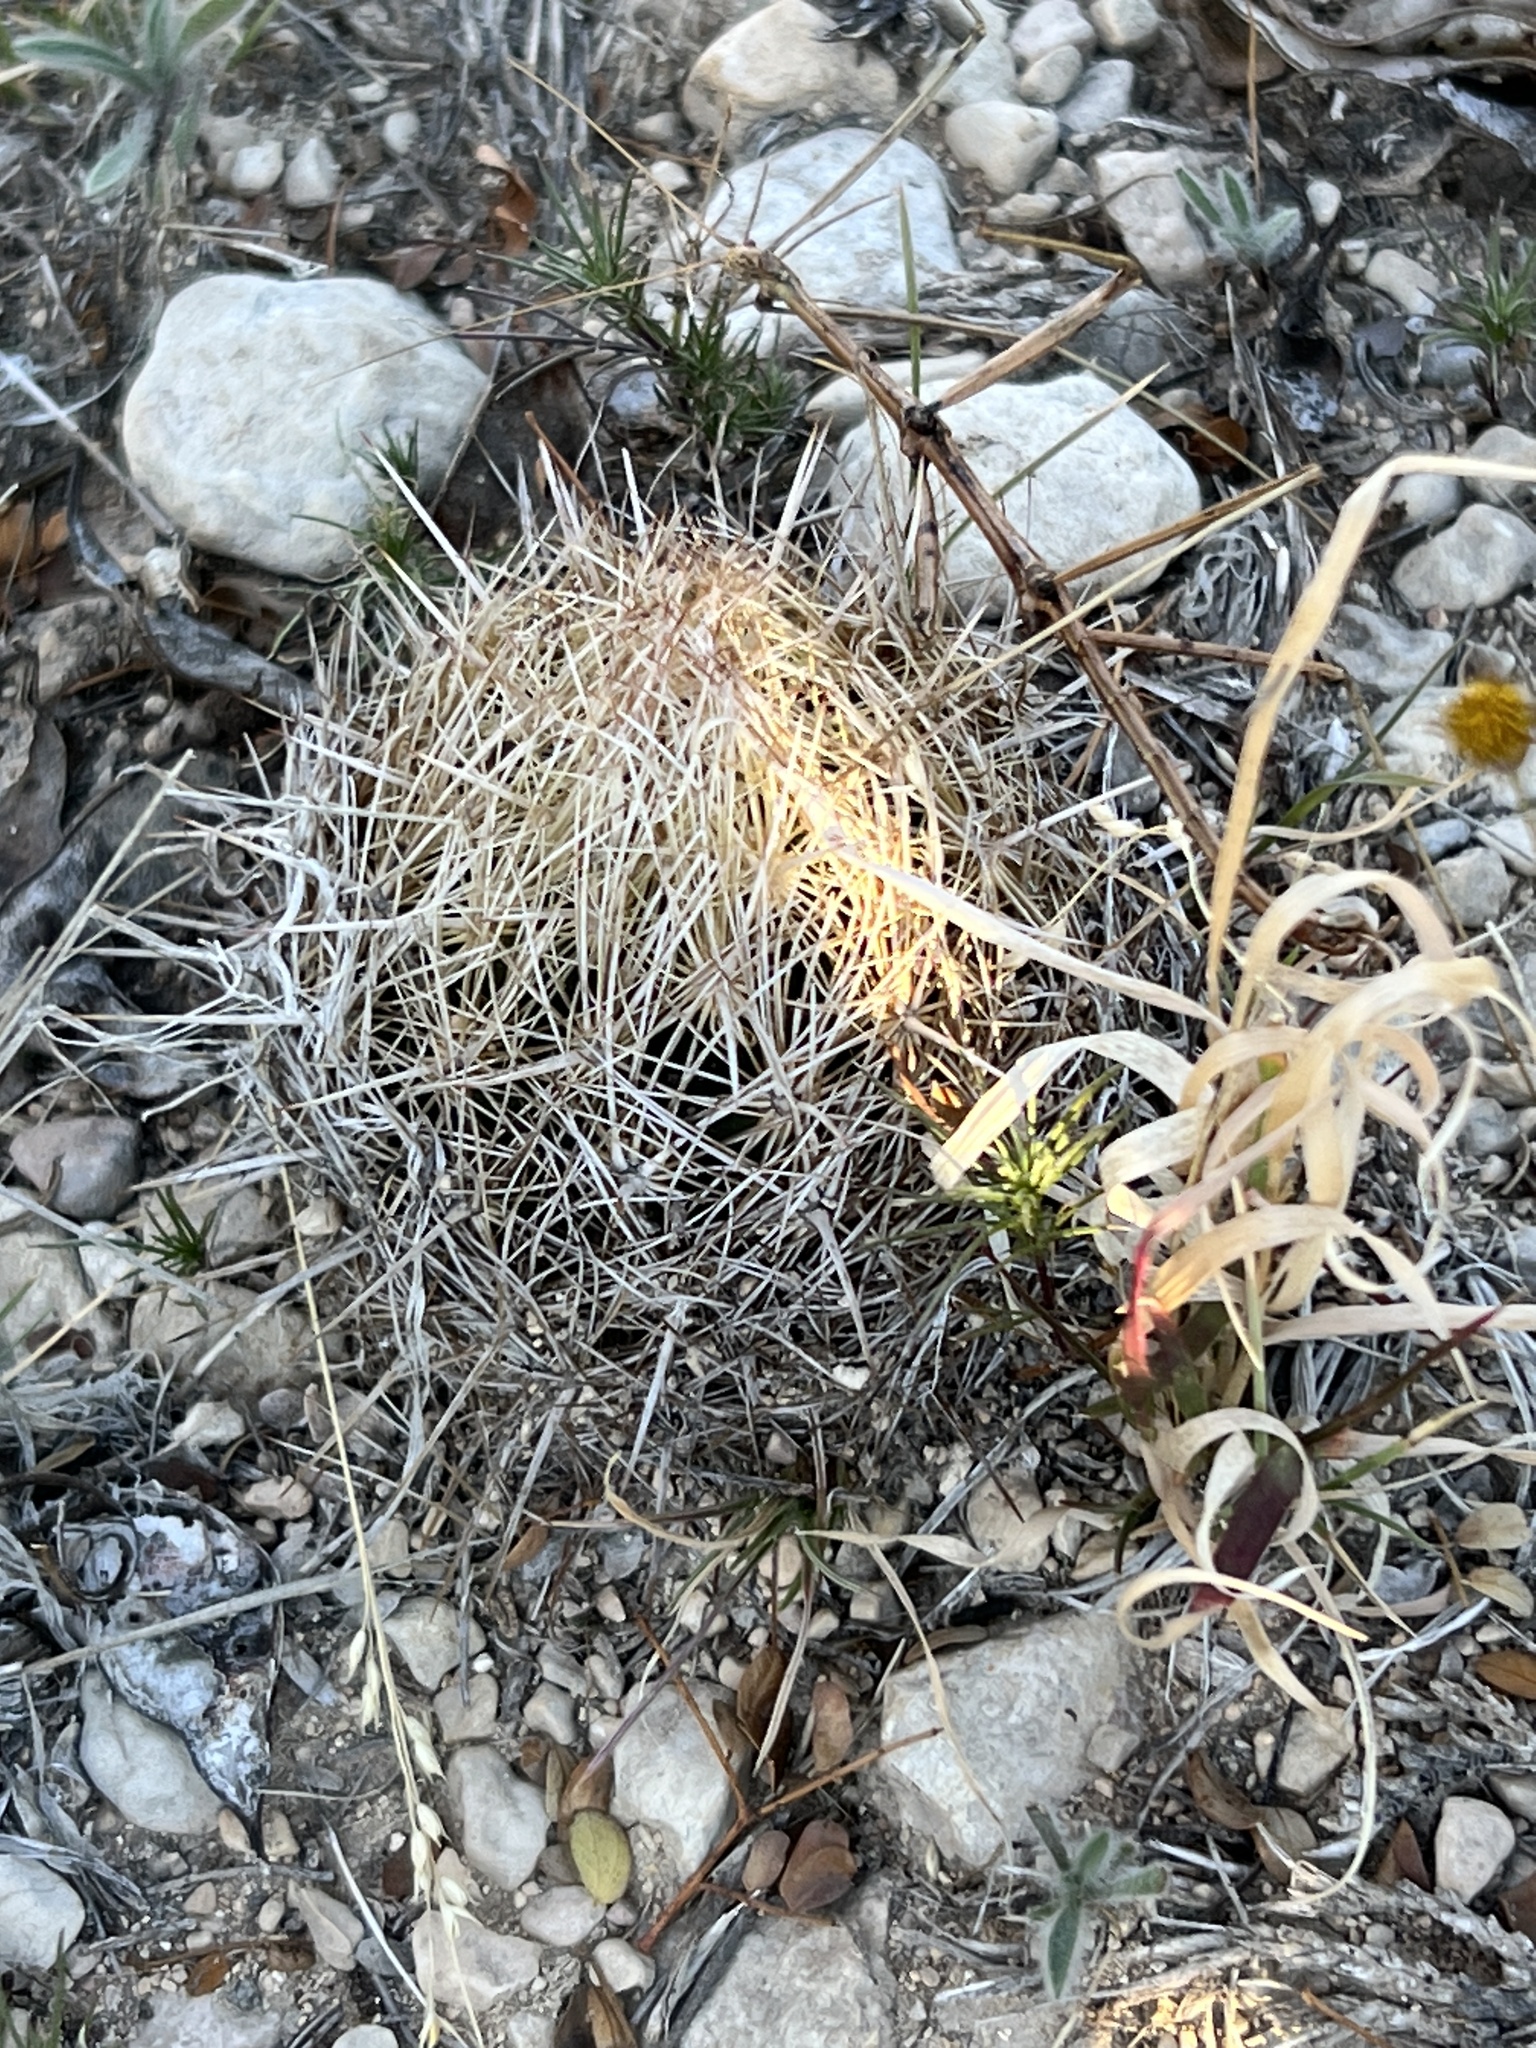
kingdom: Plantae
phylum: Tracheophyta
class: Magnoliopsida
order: Caryophyllales
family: Cactaceae
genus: Coryphantha
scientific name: Coryphantha echinus
